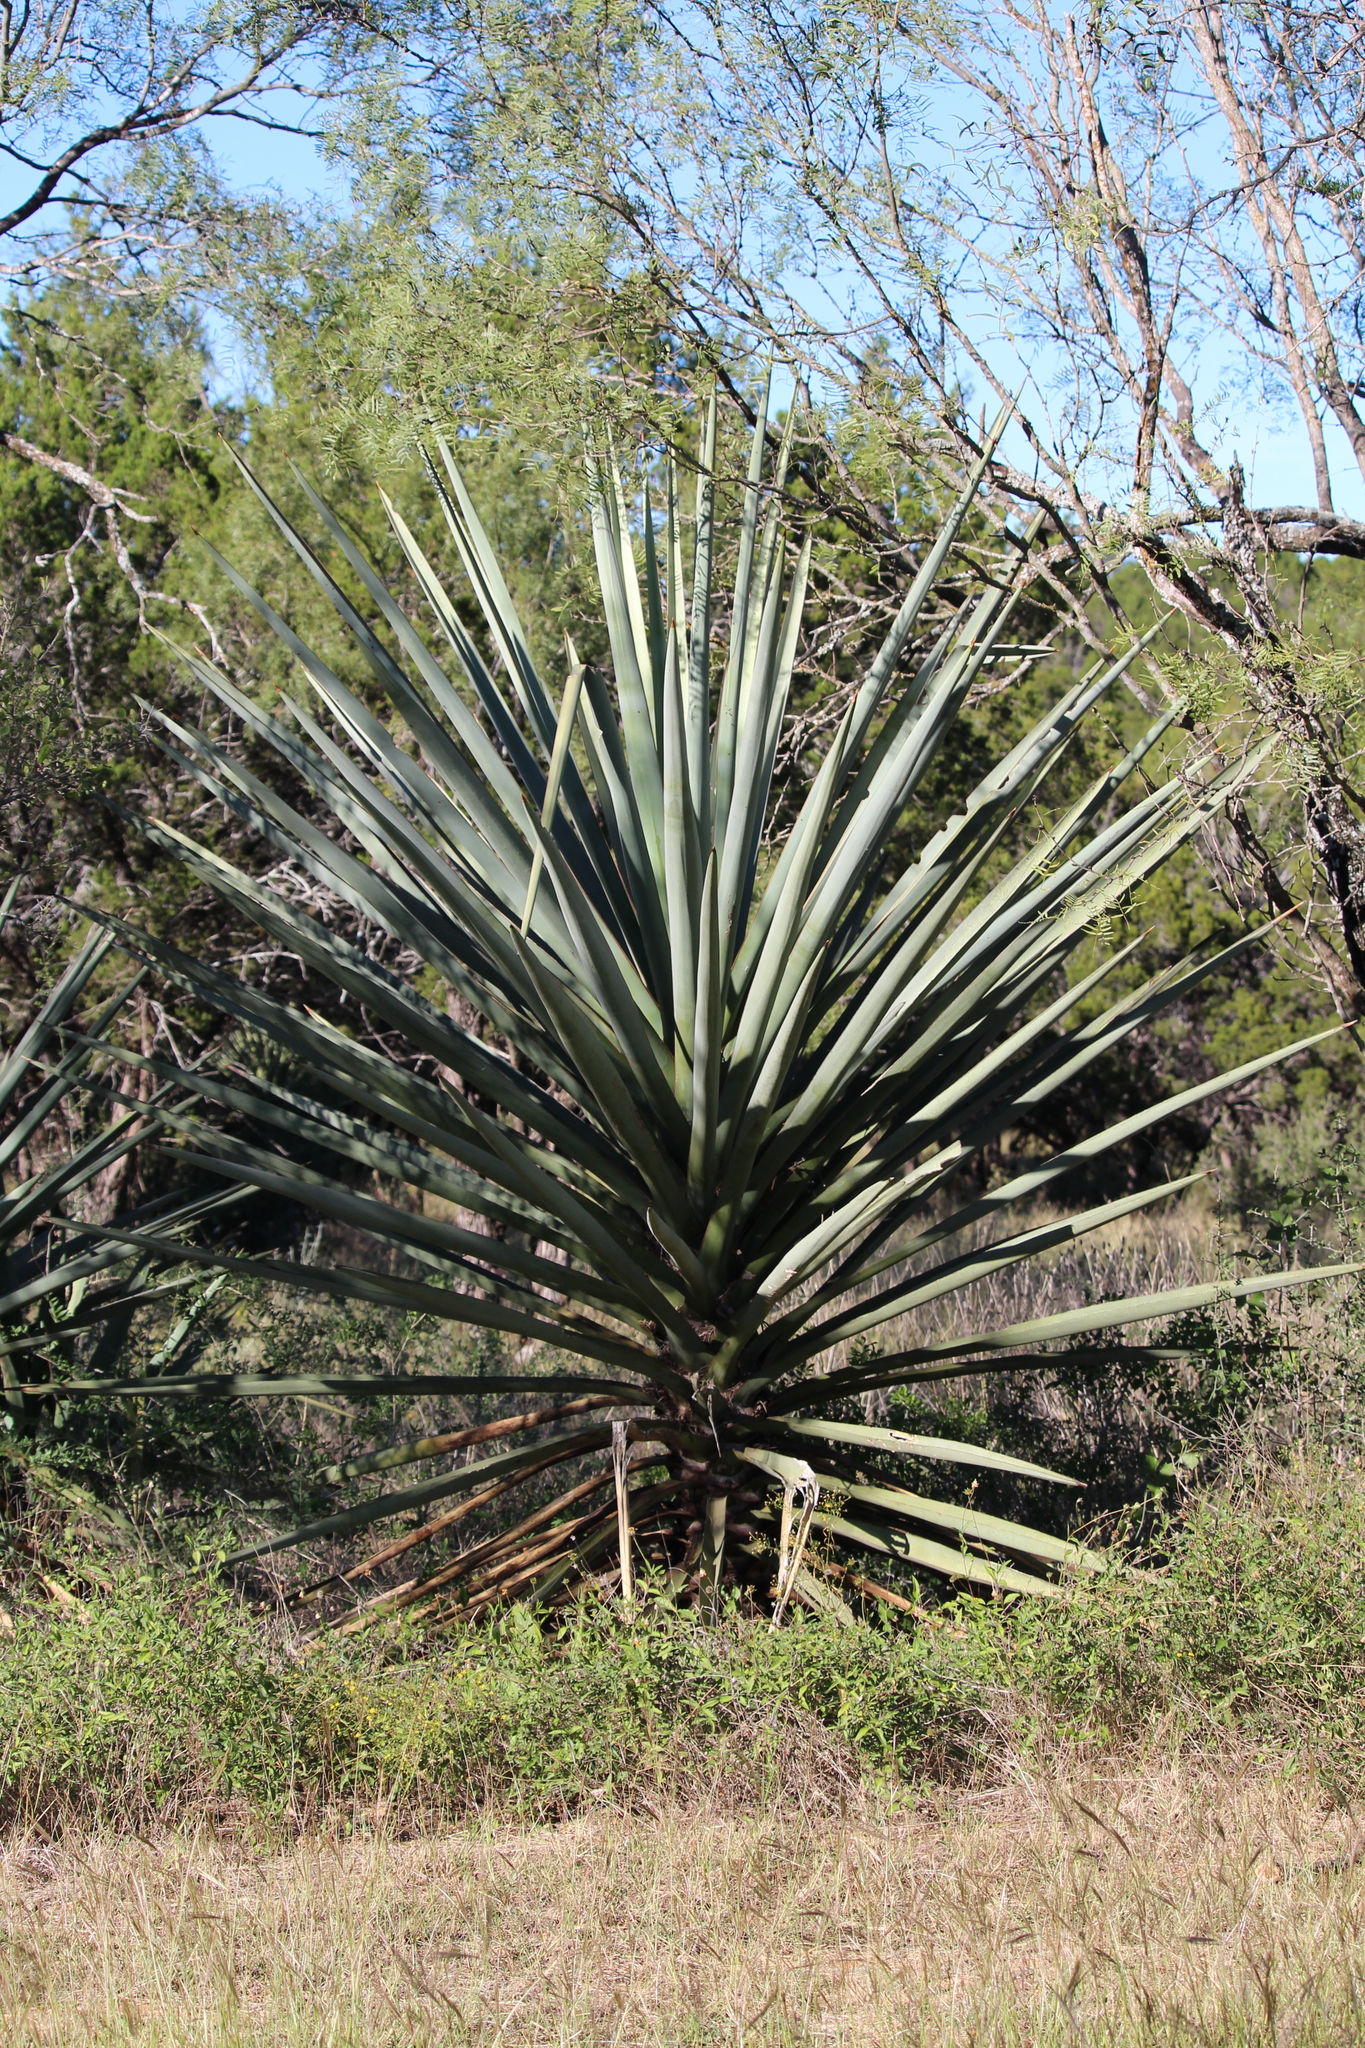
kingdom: Plantae
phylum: Tracheophyta
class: Liliopsida
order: Asparagales
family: Asparagaceae
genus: Yucca
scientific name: Yucca treculiana
